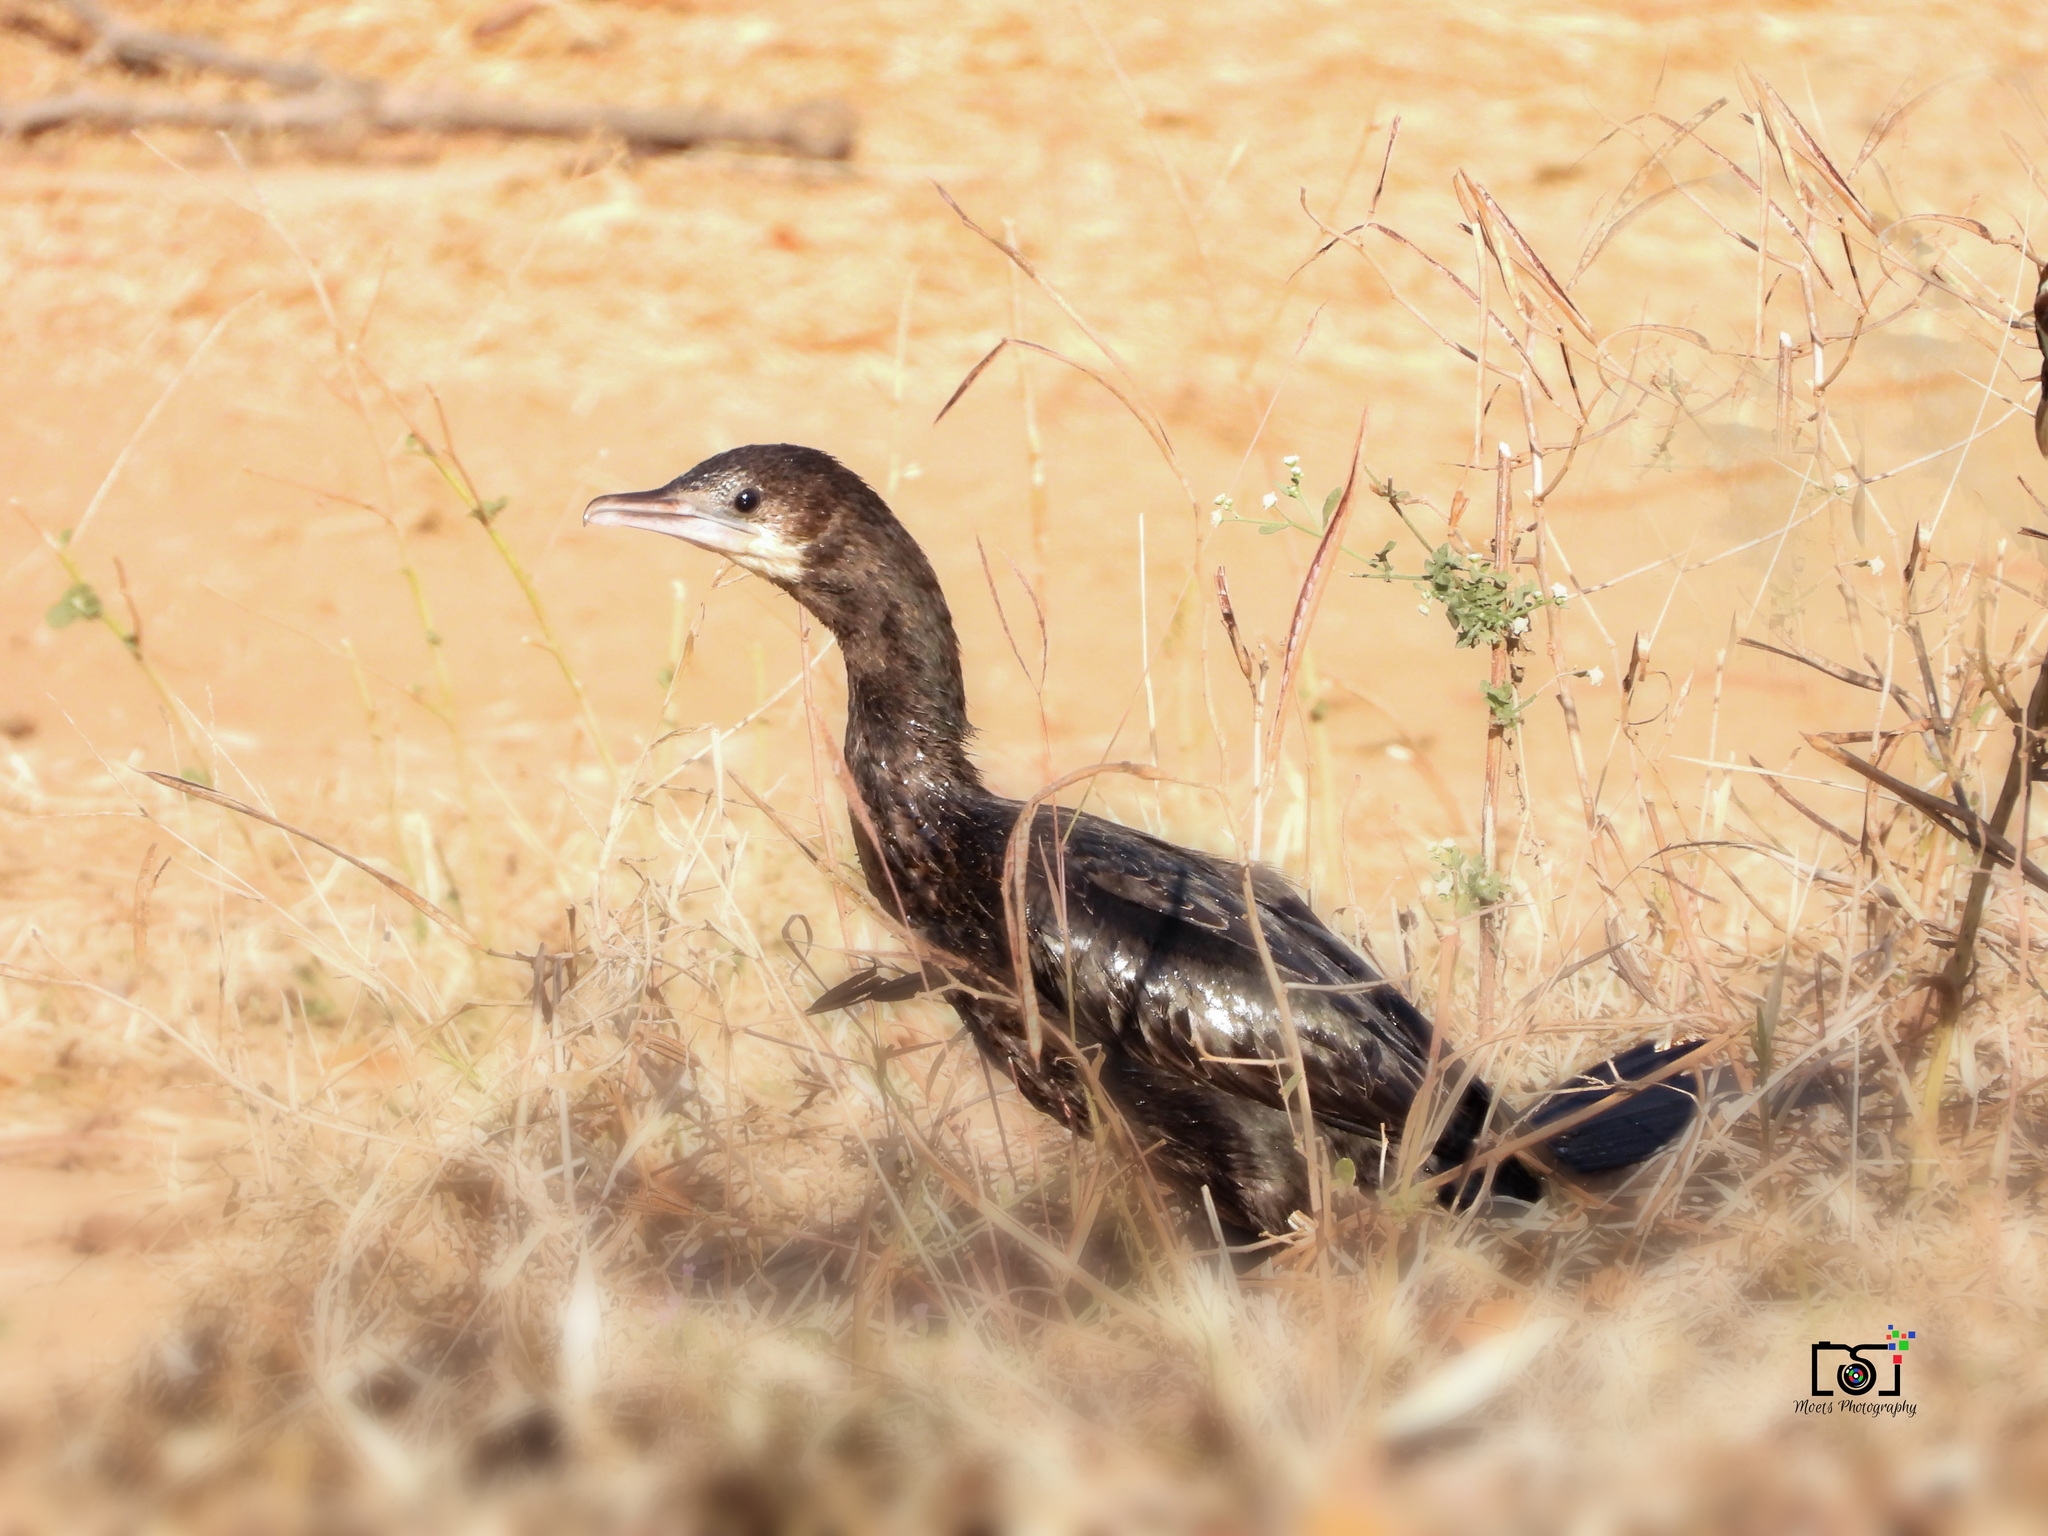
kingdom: Animalia
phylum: Chordata
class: Aves
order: Suliformes
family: Phalacrocoracidae
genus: Microcarbo
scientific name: Microcarbo niger
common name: Little cormorant
